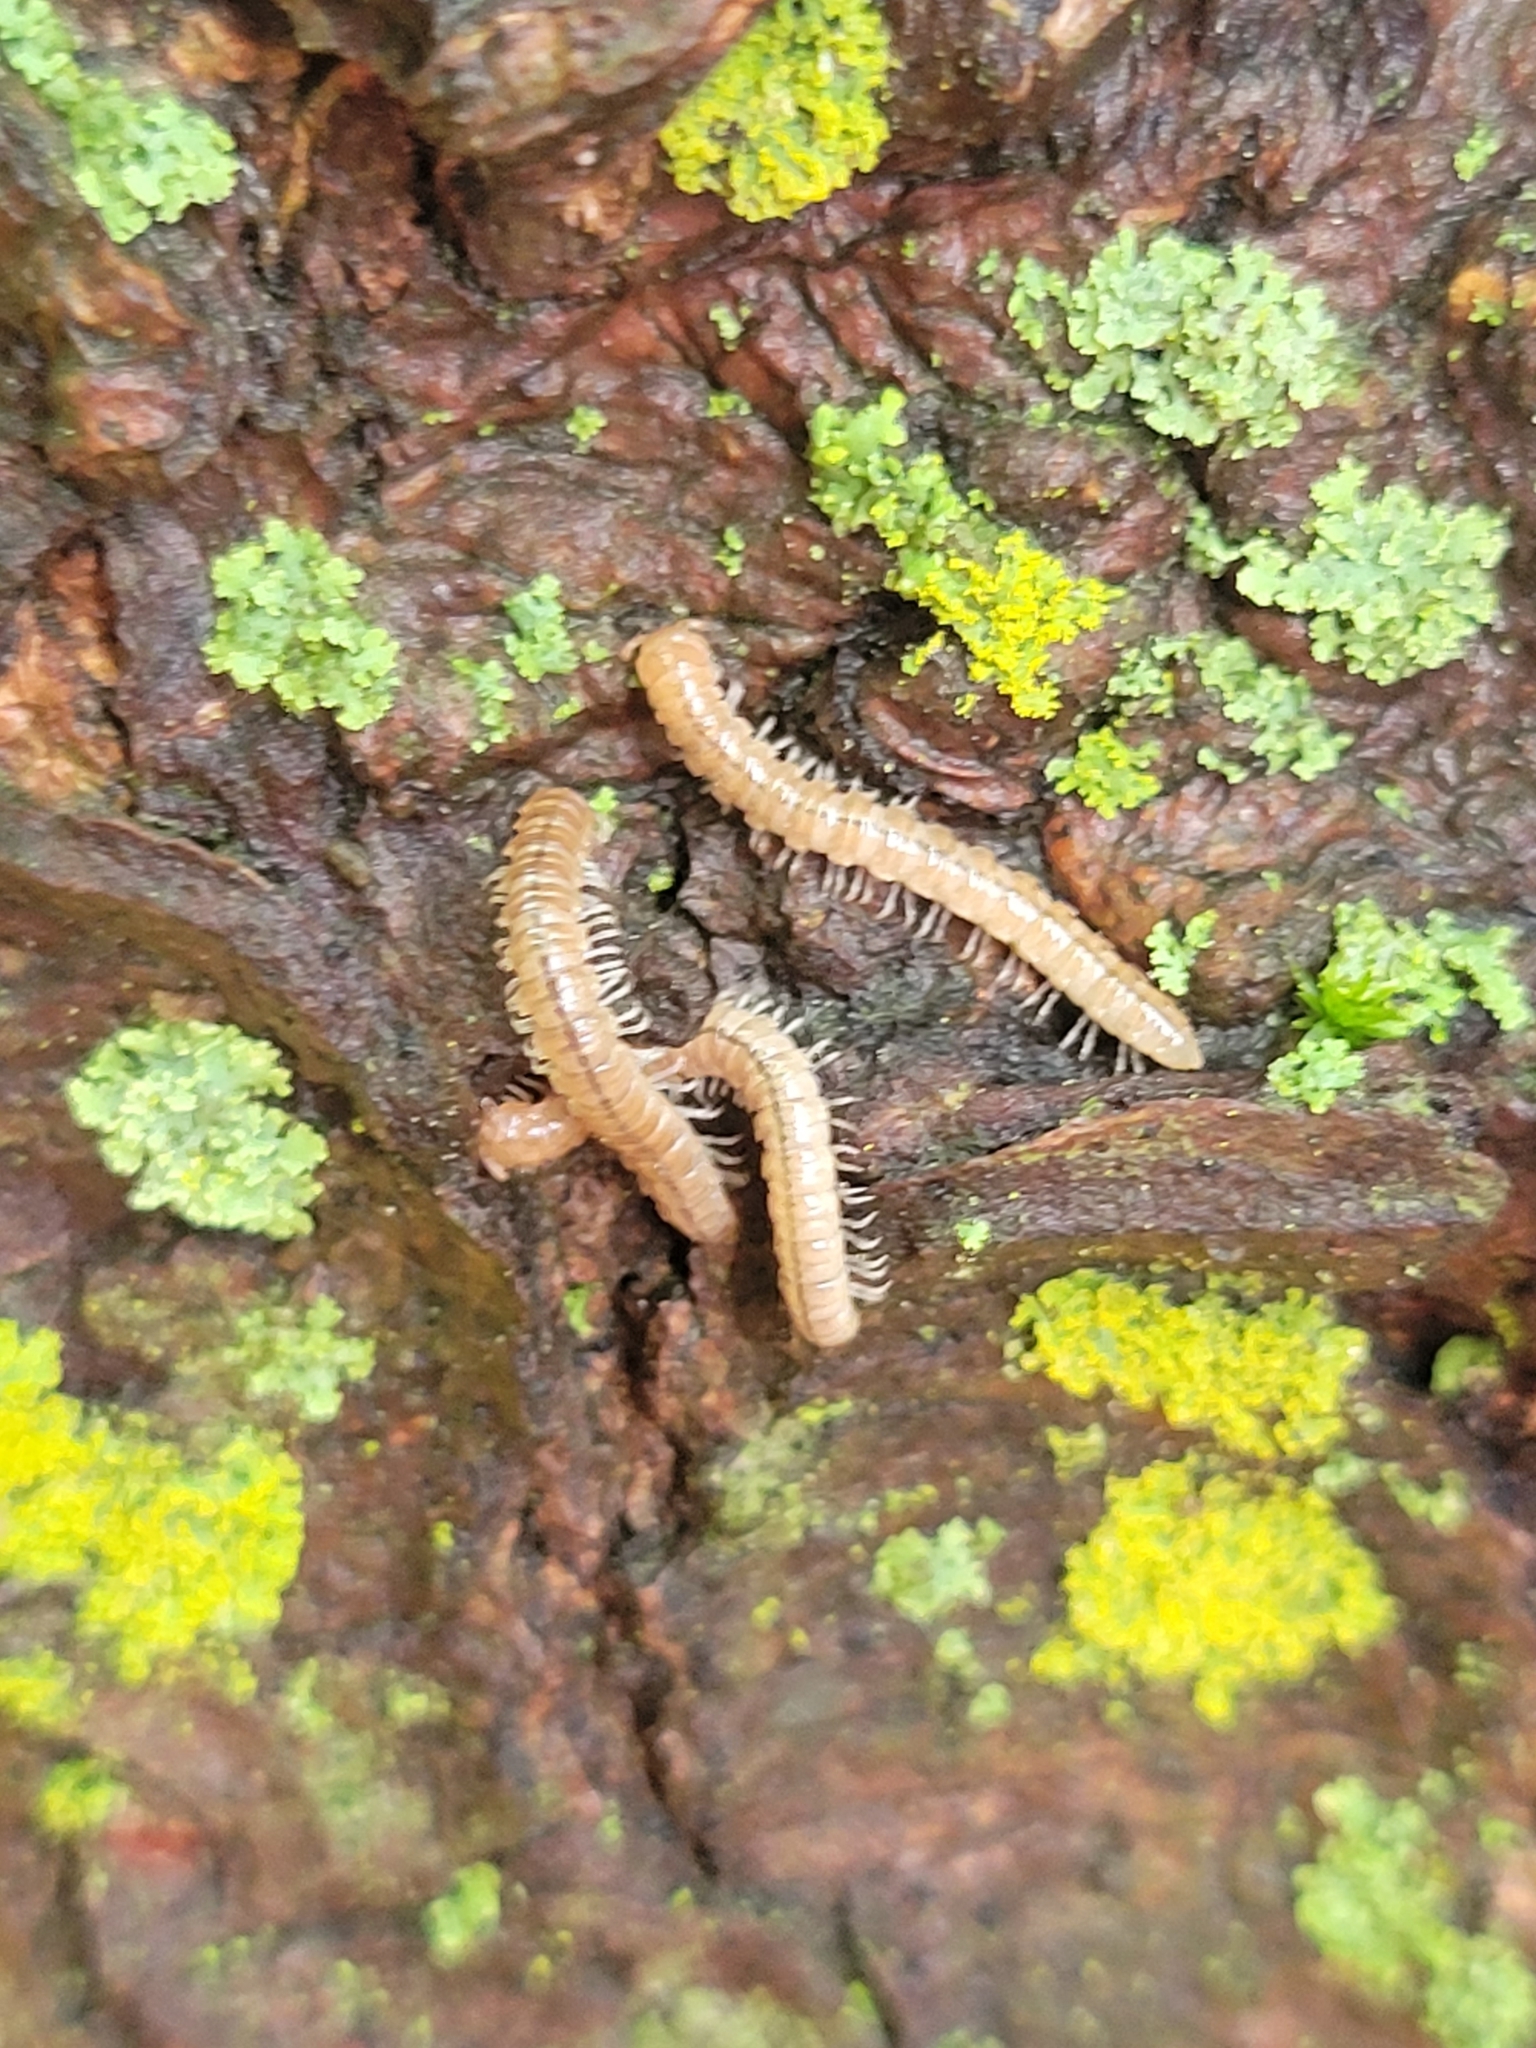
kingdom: Animalia
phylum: Arthropoda
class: Diplopoda
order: Polydesmida
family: Paradoxosomatidae
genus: Oxidus
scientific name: Oxidus gracilis
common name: Greenhouse millipede
